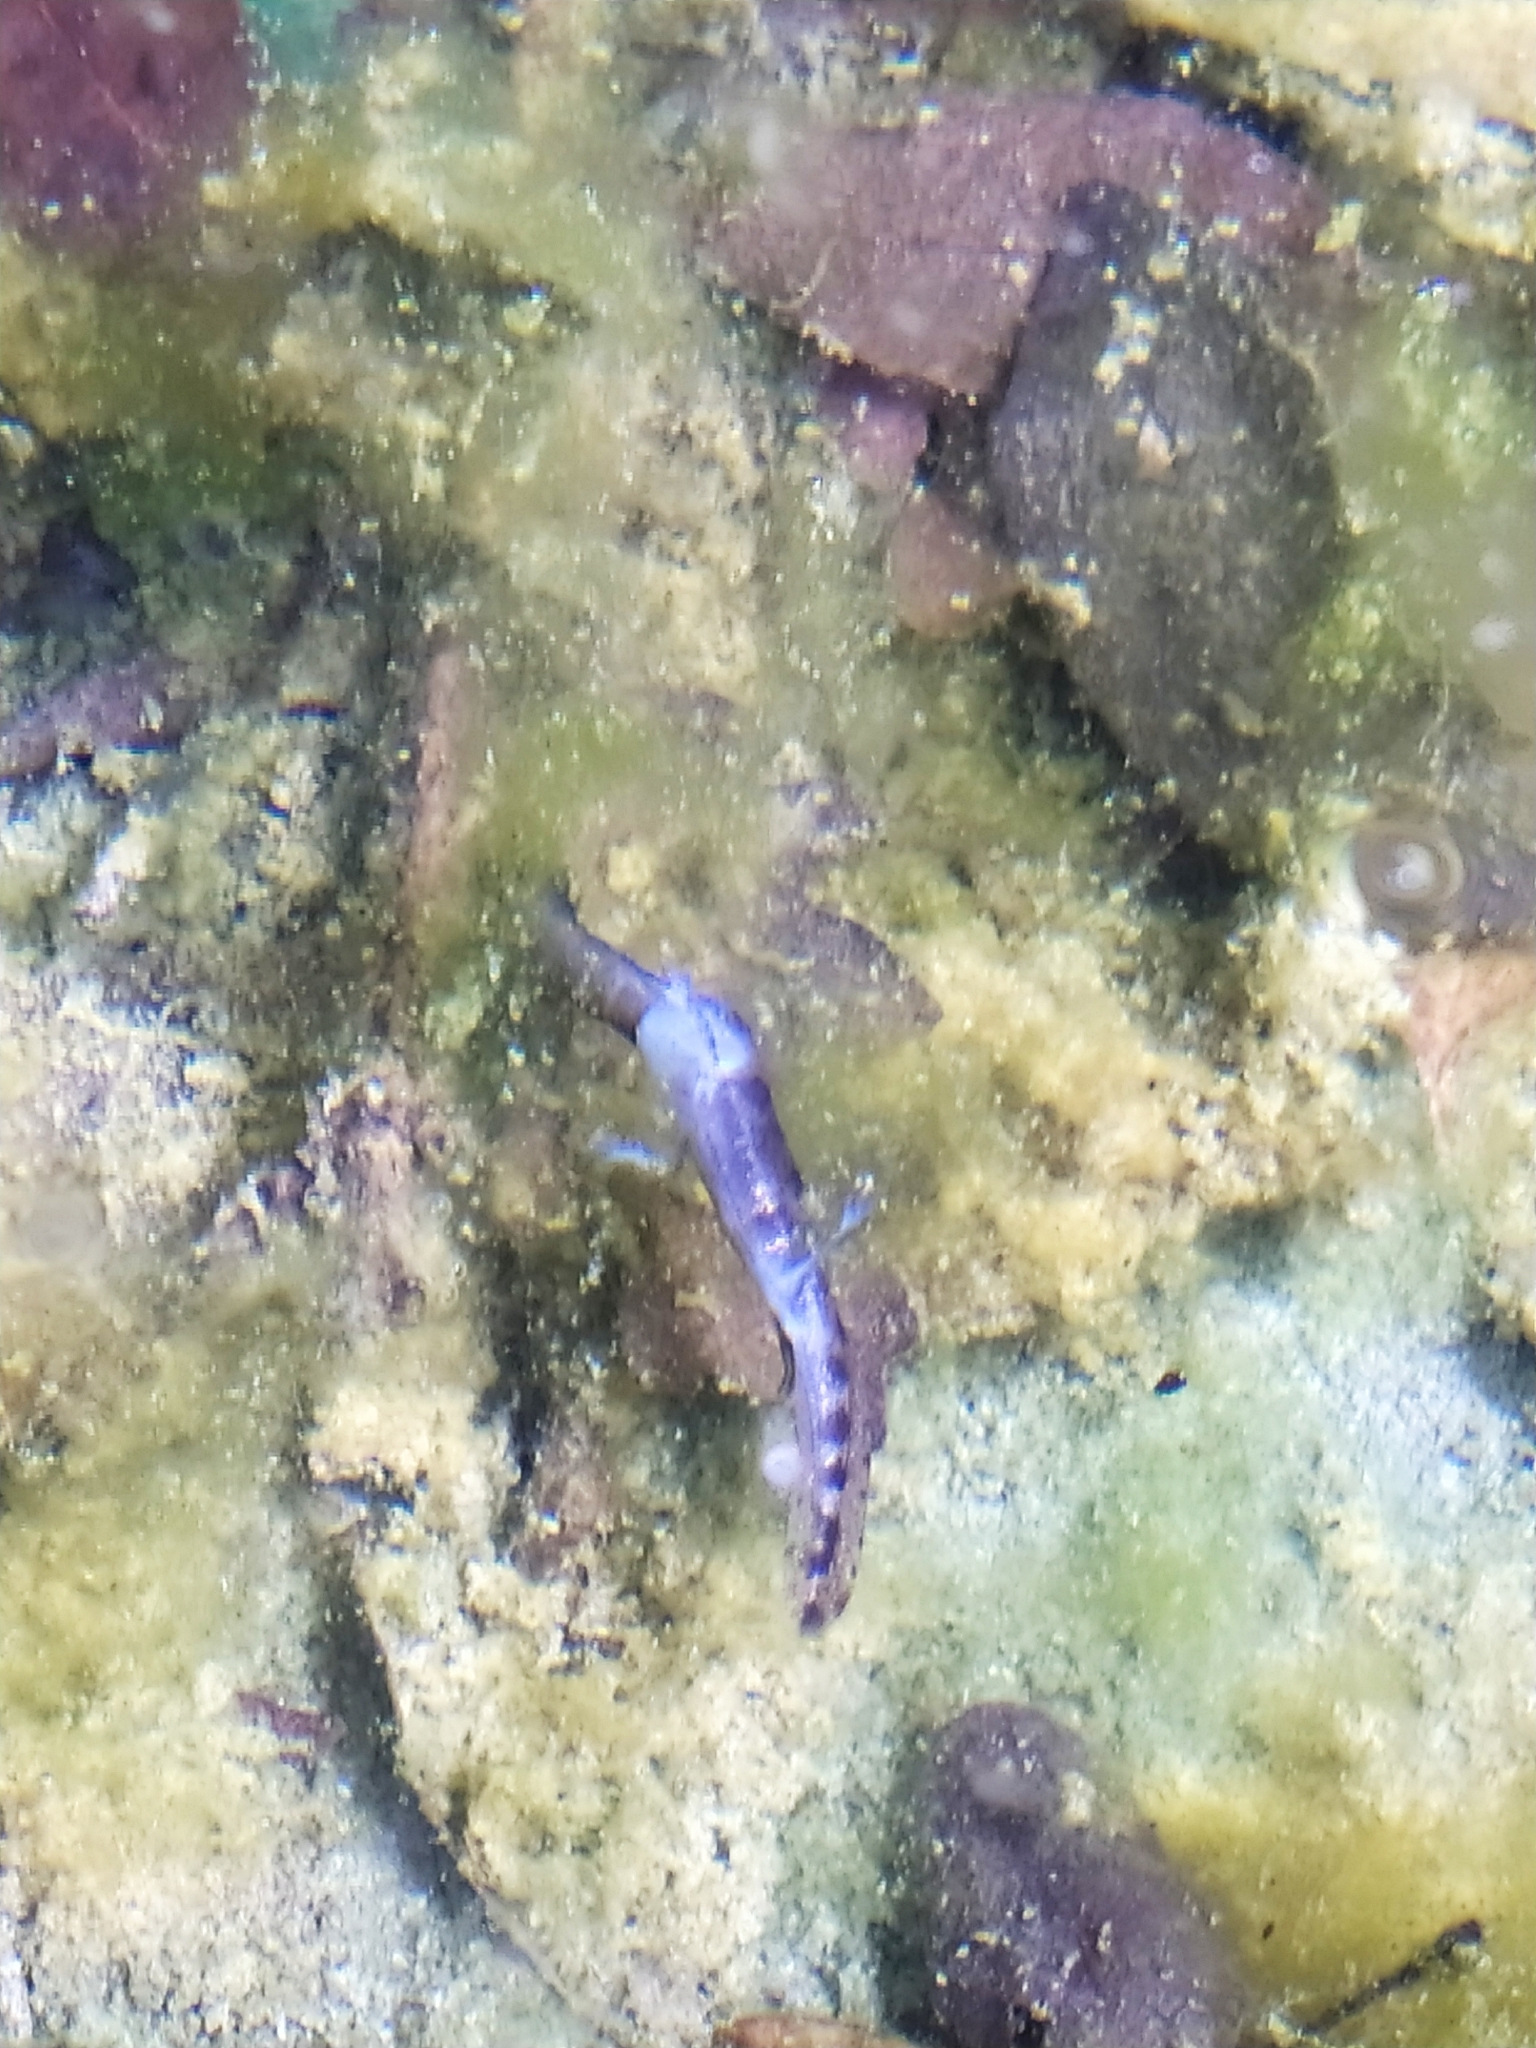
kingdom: Animalia
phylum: Chordata
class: Amphibia
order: Caudata
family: Salamandridae
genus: Salamandra
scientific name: Salamandra salamandra
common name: Fire salamander
